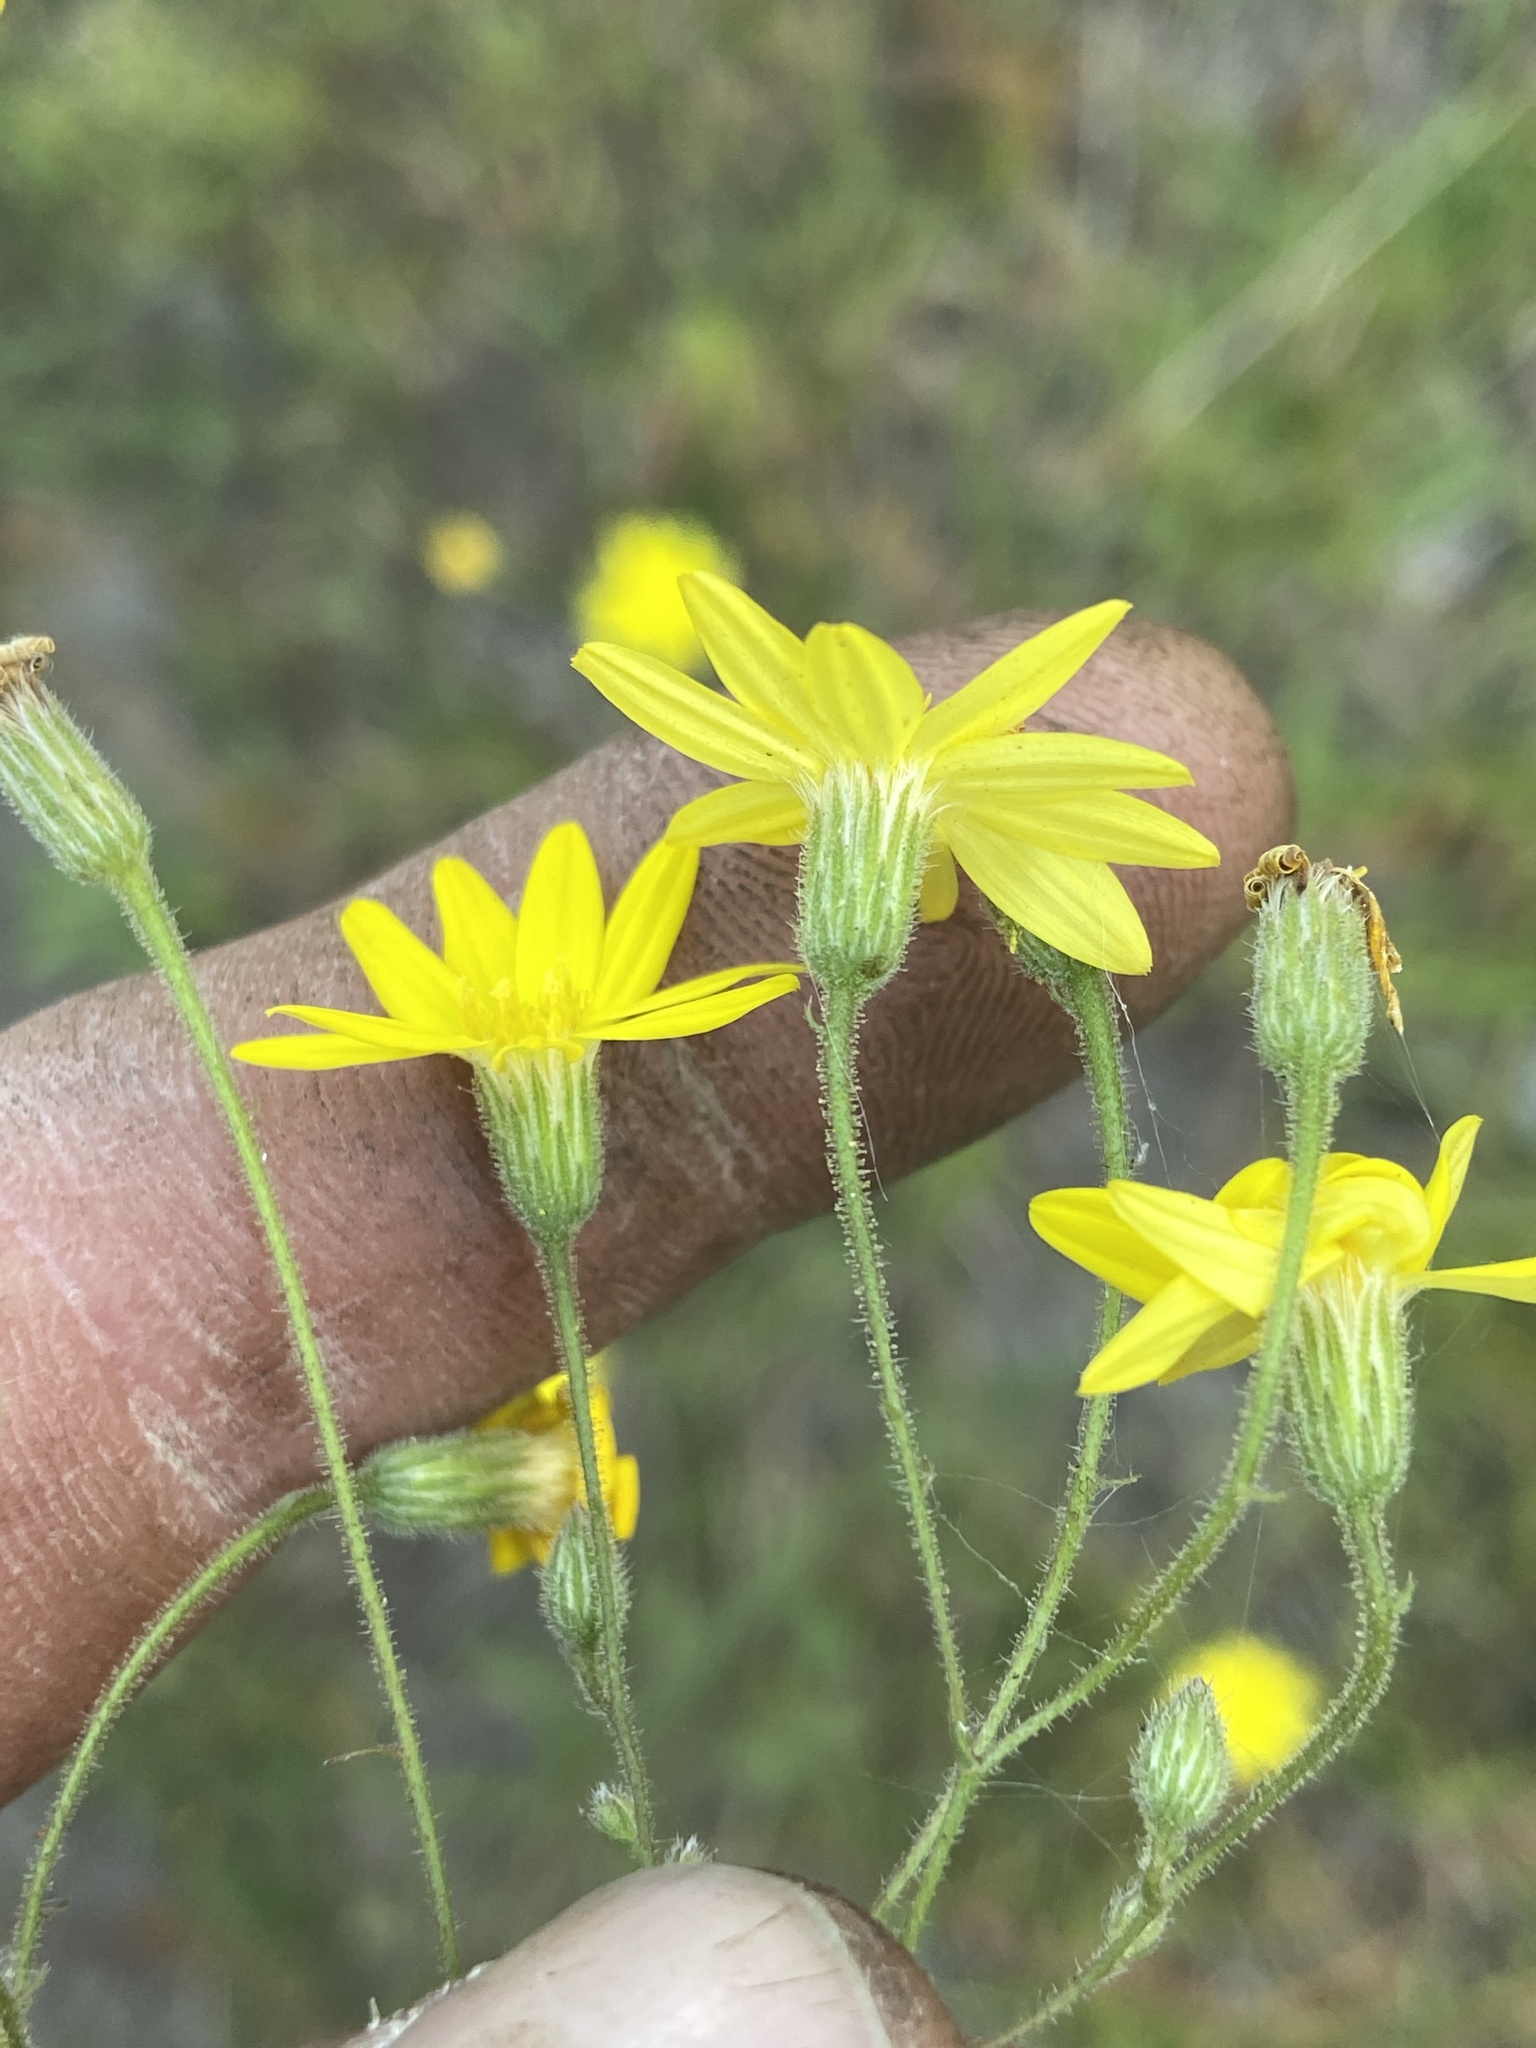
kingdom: Plantae
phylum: Tracheophyta
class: Magnoliopsida
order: Asterales
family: Asteraceae
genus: Croptilon
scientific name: Croptilon divaricatum
